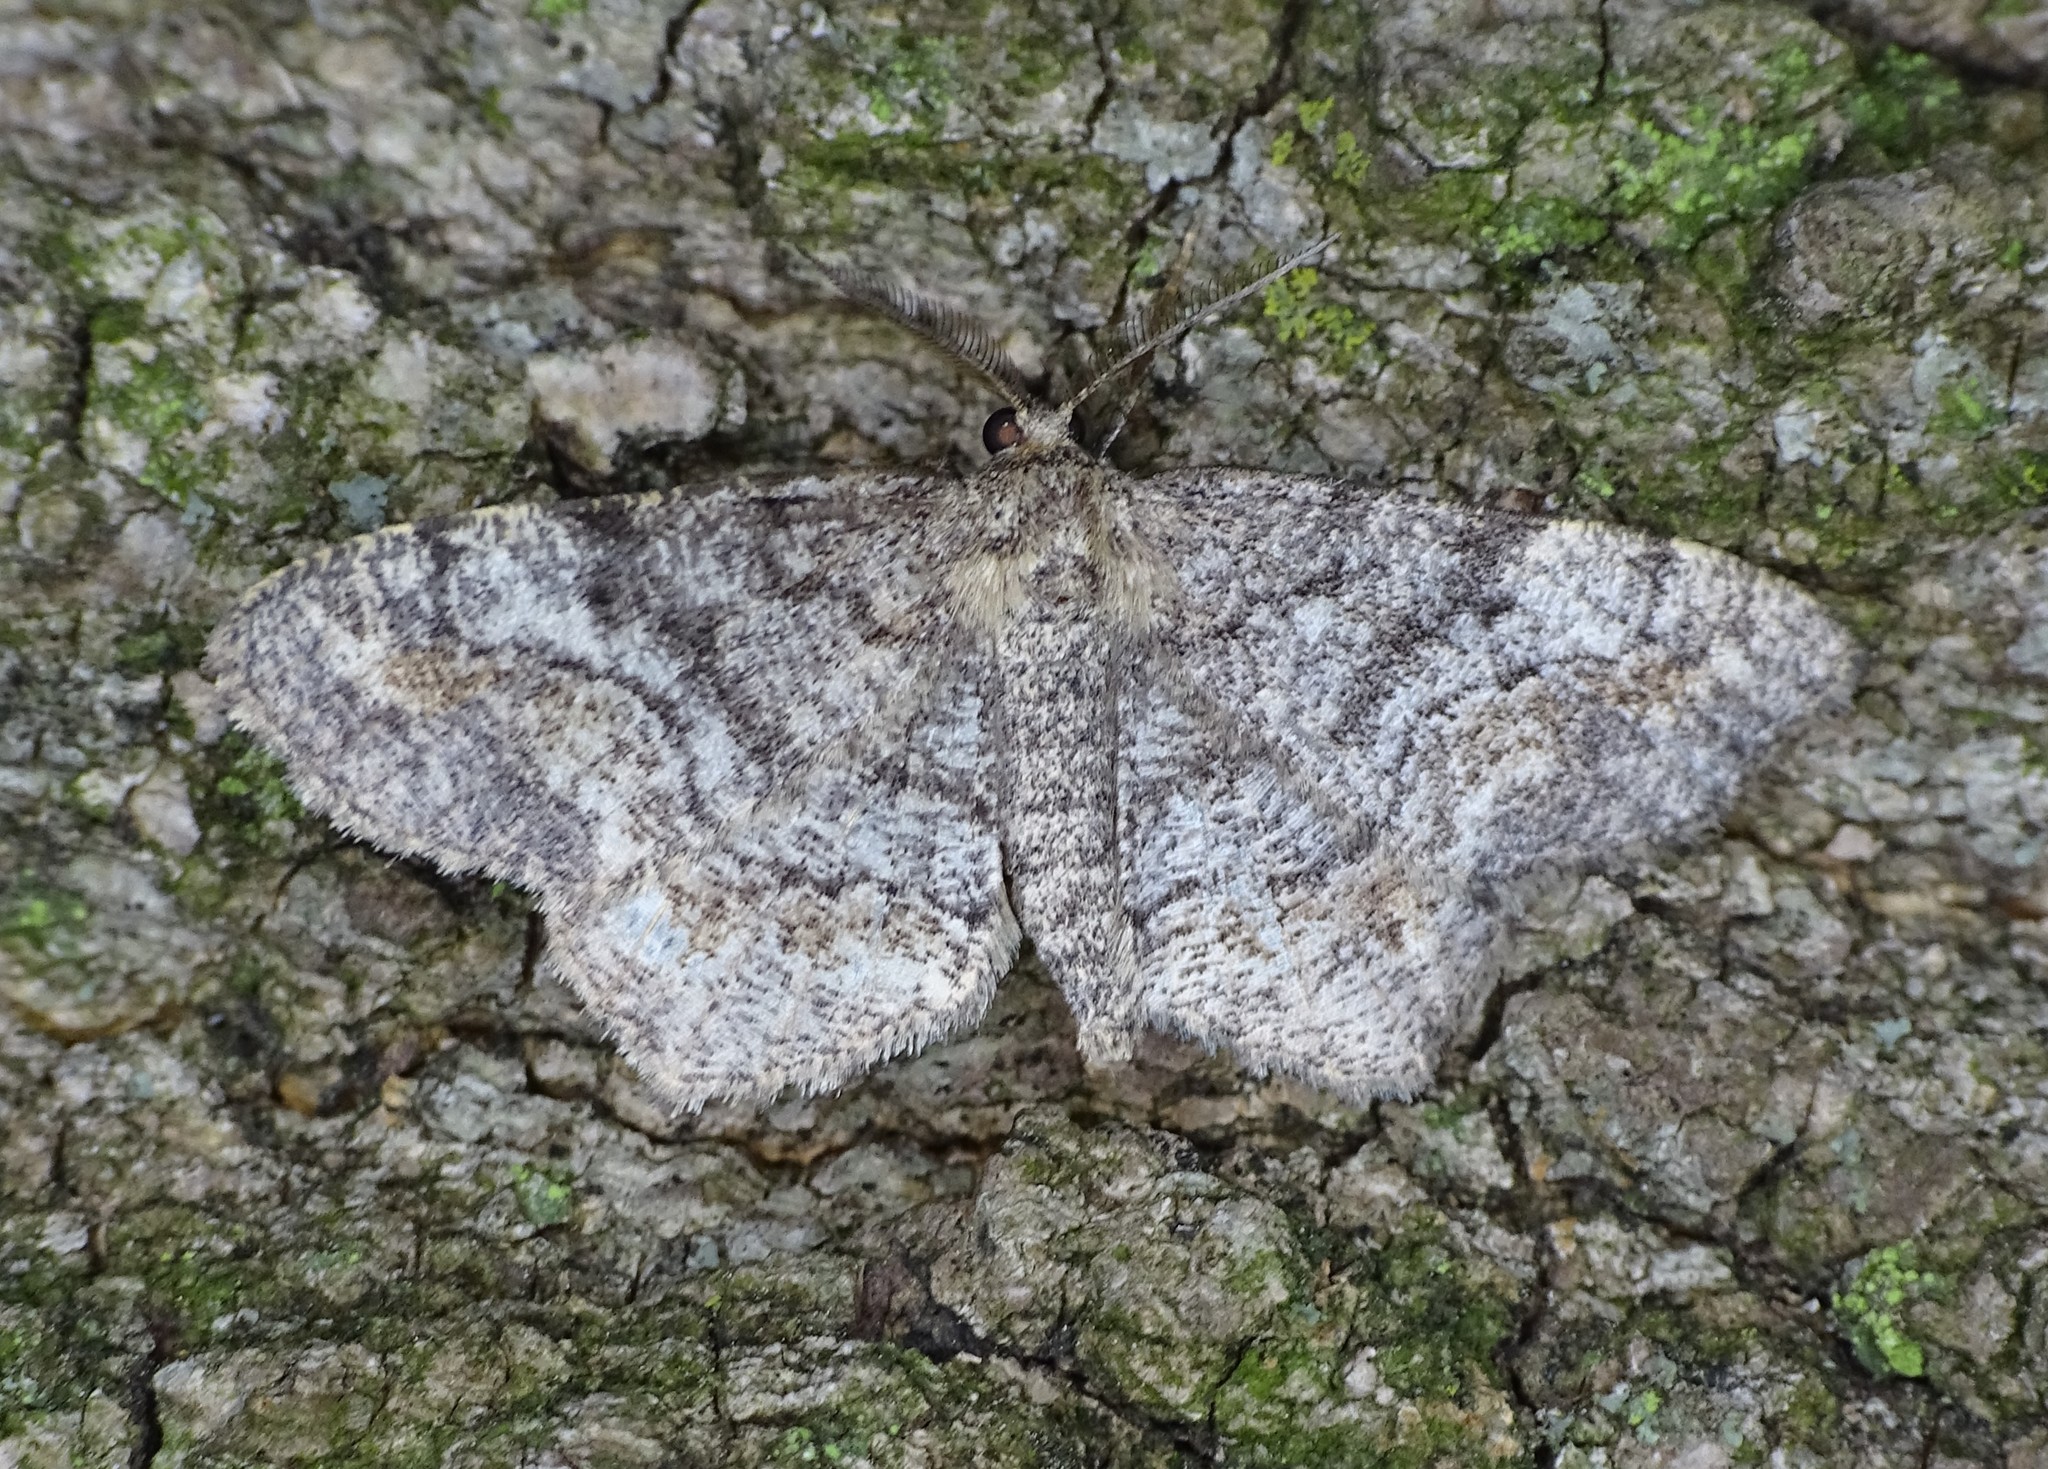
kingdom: Animalia
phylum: Arthropoda
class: Insecta
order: Lepidoptera
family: Geometridae
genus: Hypagyrtis
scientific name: Hypagyrtis unipunctata
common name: One-spotted variant
